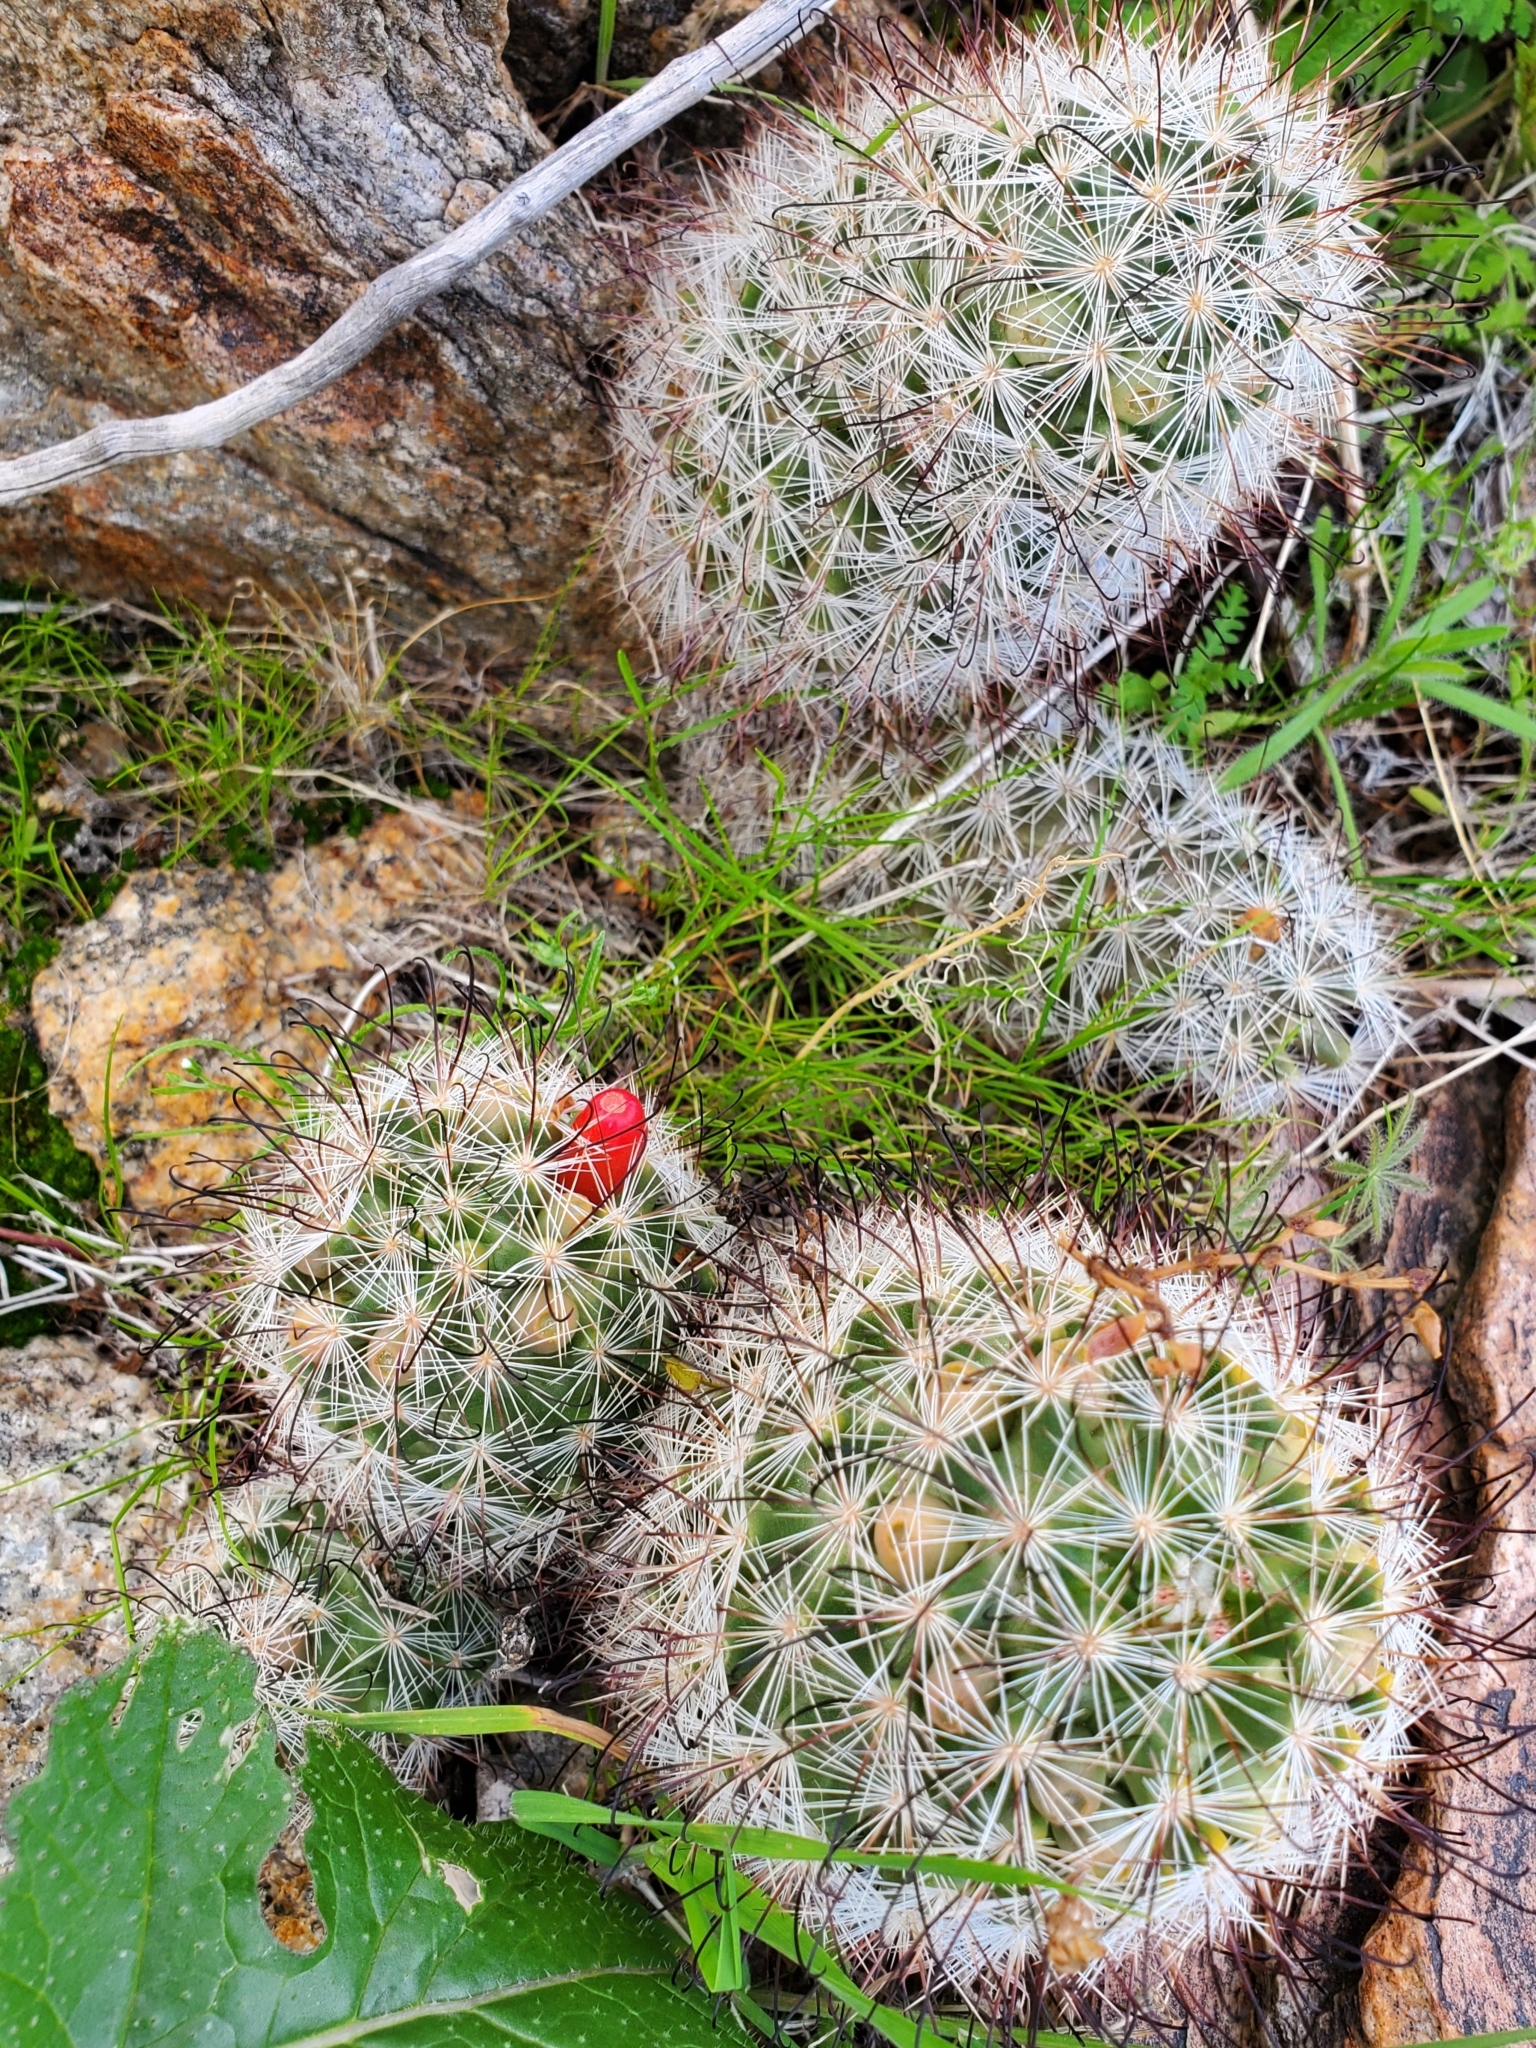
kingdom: Plantae
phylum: Tracheophyta
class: Magnoliopsida
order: Caryophyllales
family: Cactaceae
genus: Cochemiea
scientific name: Cochemiea tetrancistra
